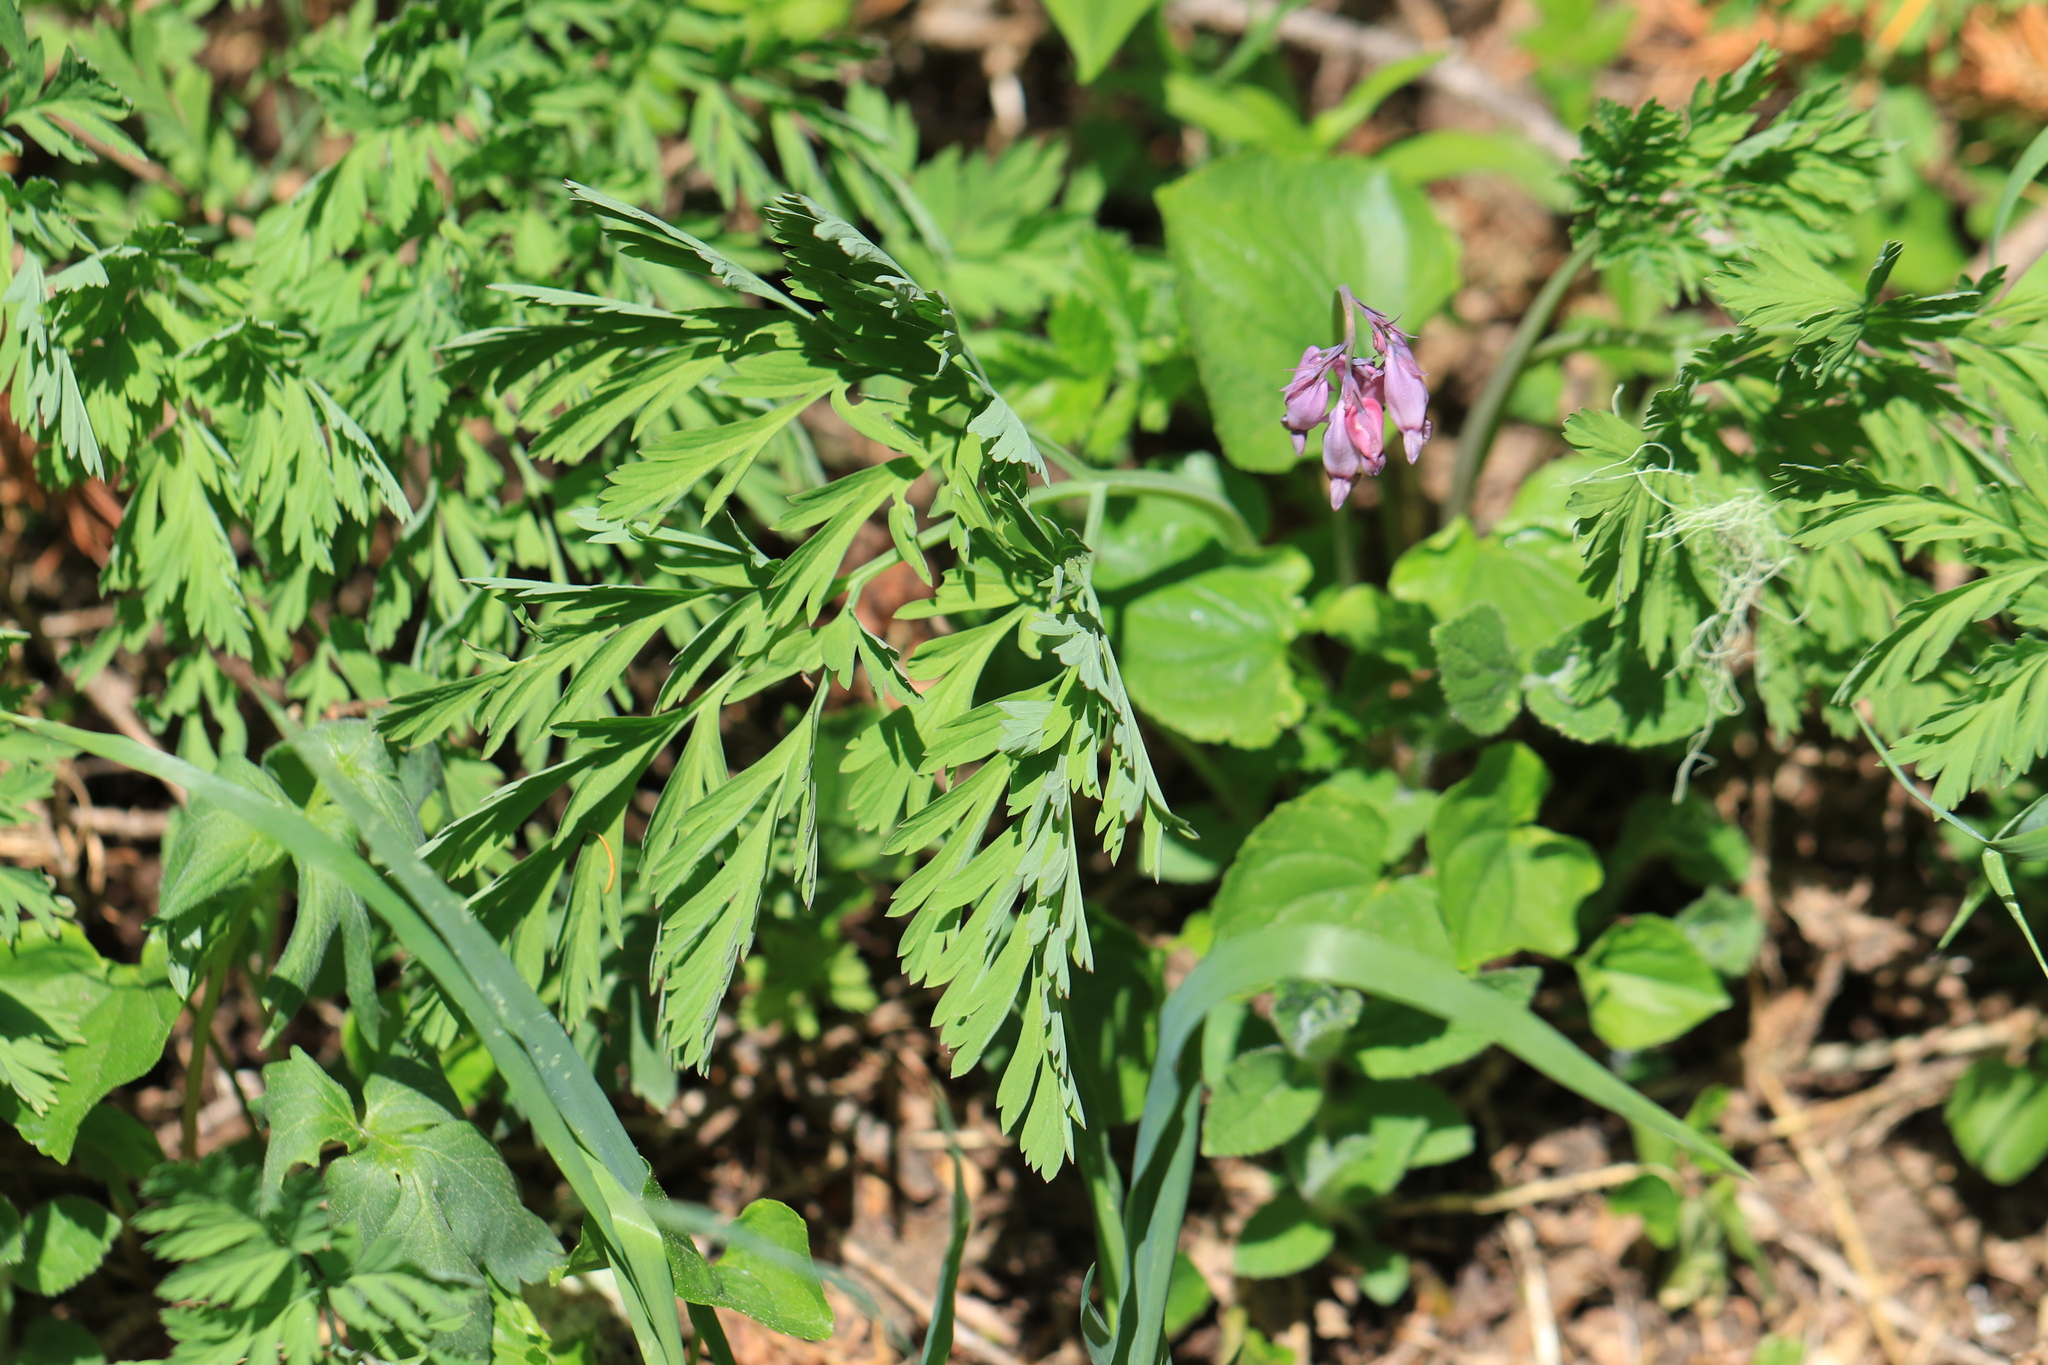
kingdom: Plantae
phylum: Tracheophyta
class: Magnoliopsida
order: Ranunculales
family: Papaveraceae
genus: Dicentra
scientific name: Dicentra formosa
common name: Bleeding-heart
